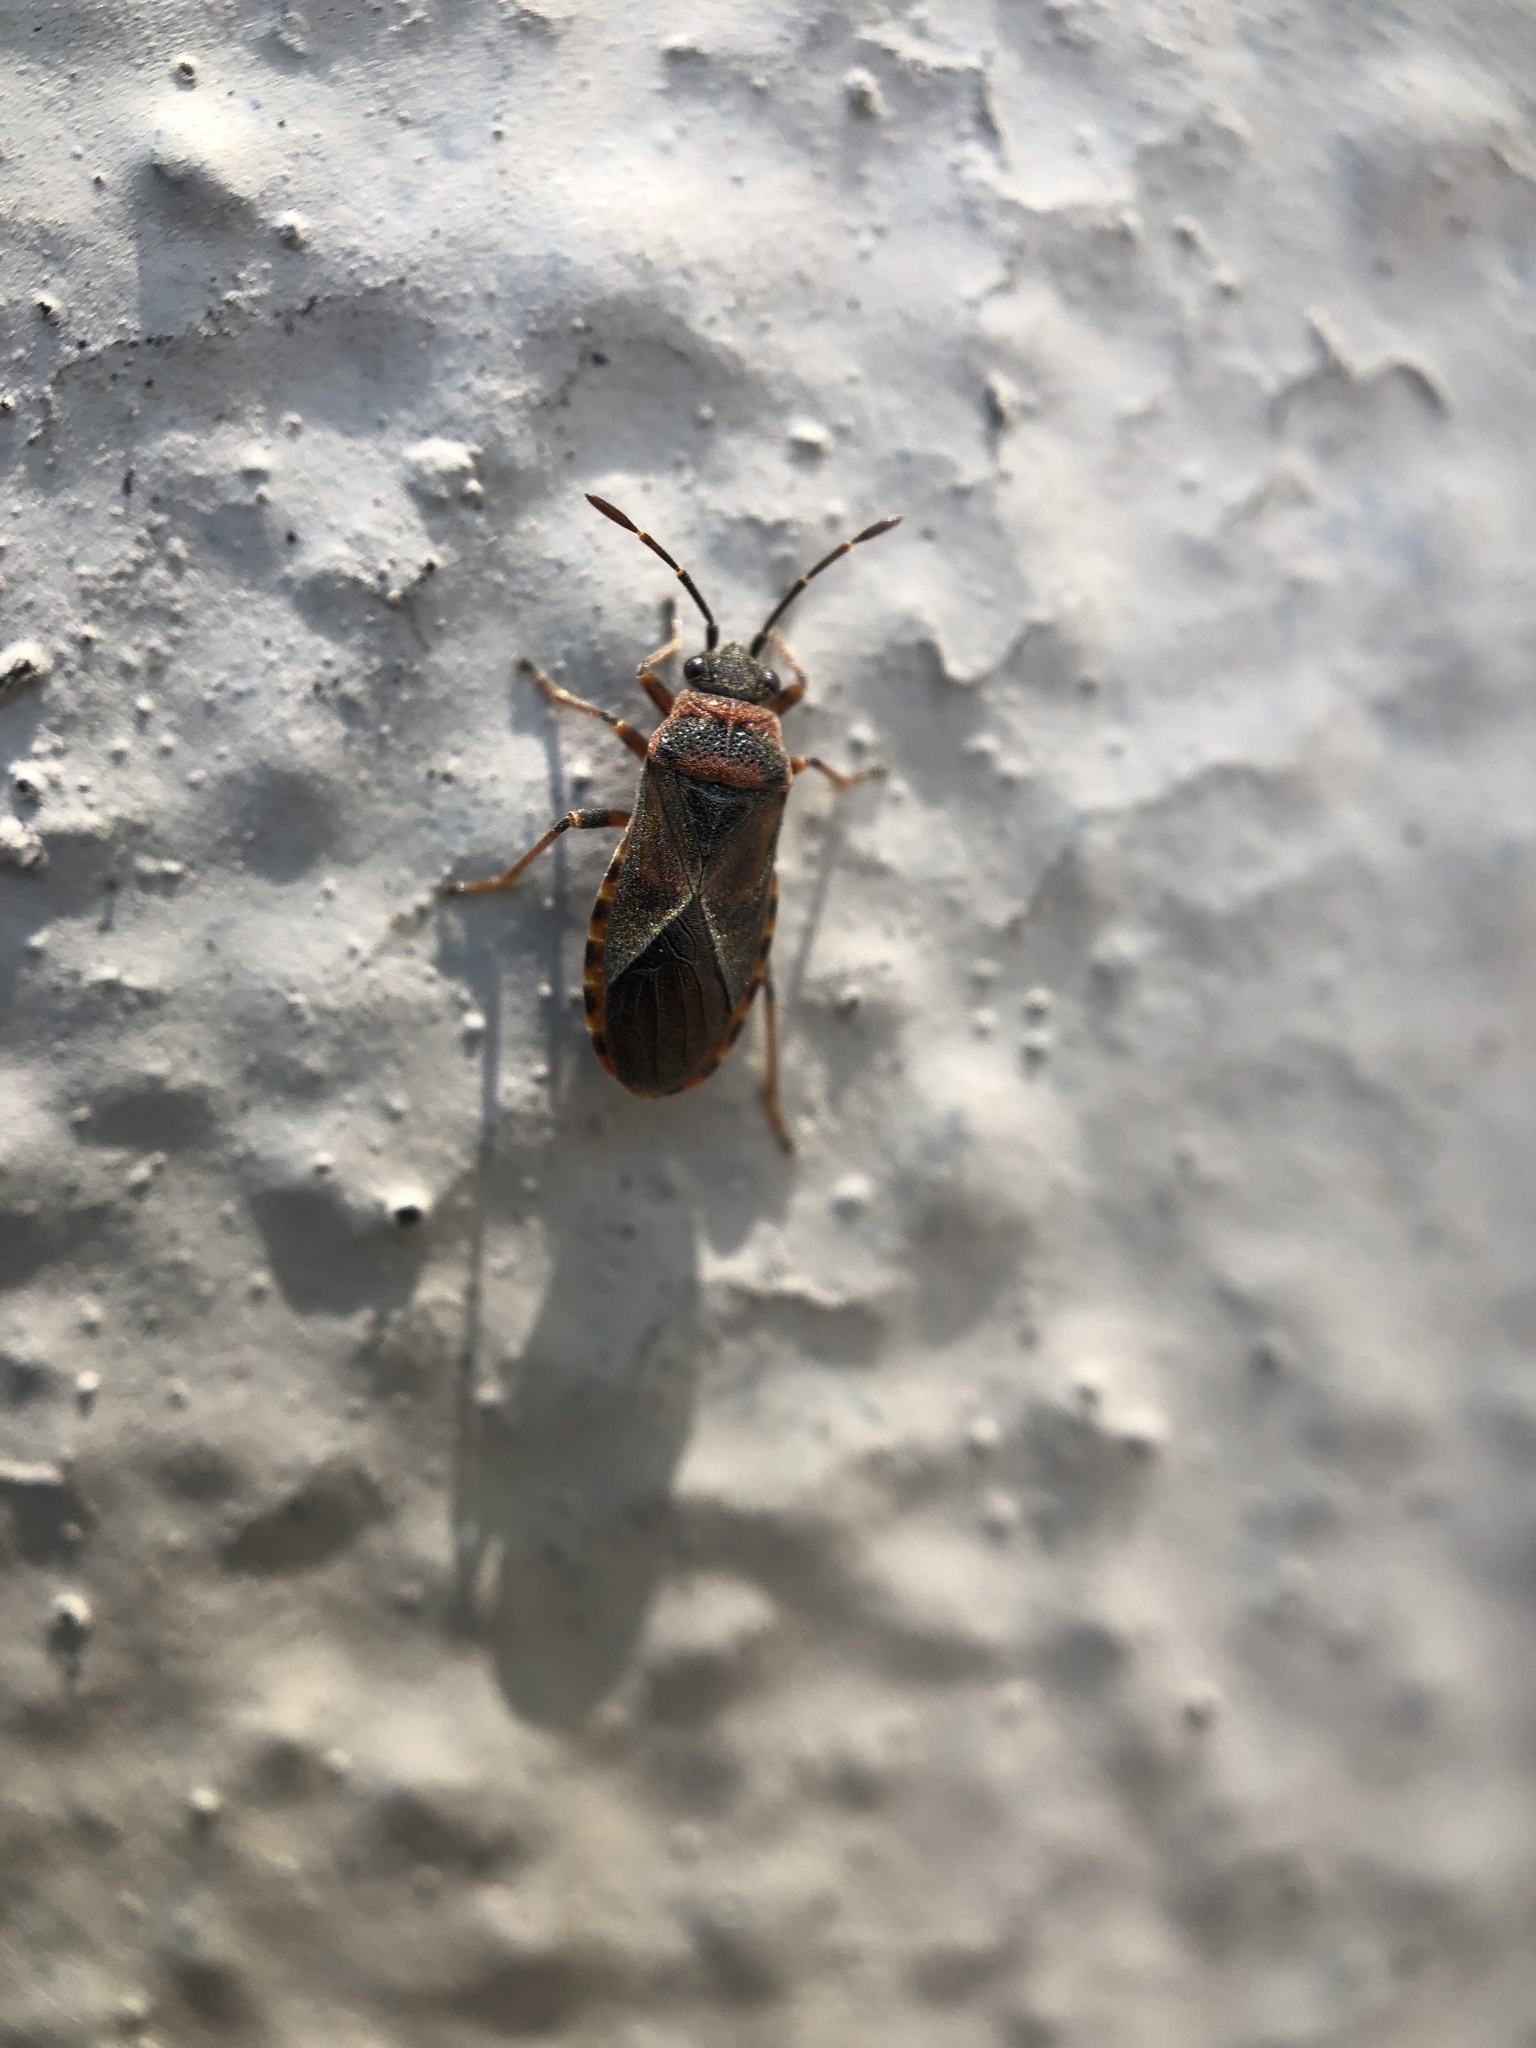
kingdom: Animalia
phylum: Arthropoda
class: Insecta
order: Hemiptera
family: Lygaeidae
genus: Arocatus
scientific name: Arocatus melanocephalus
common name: Lygaeid bug
